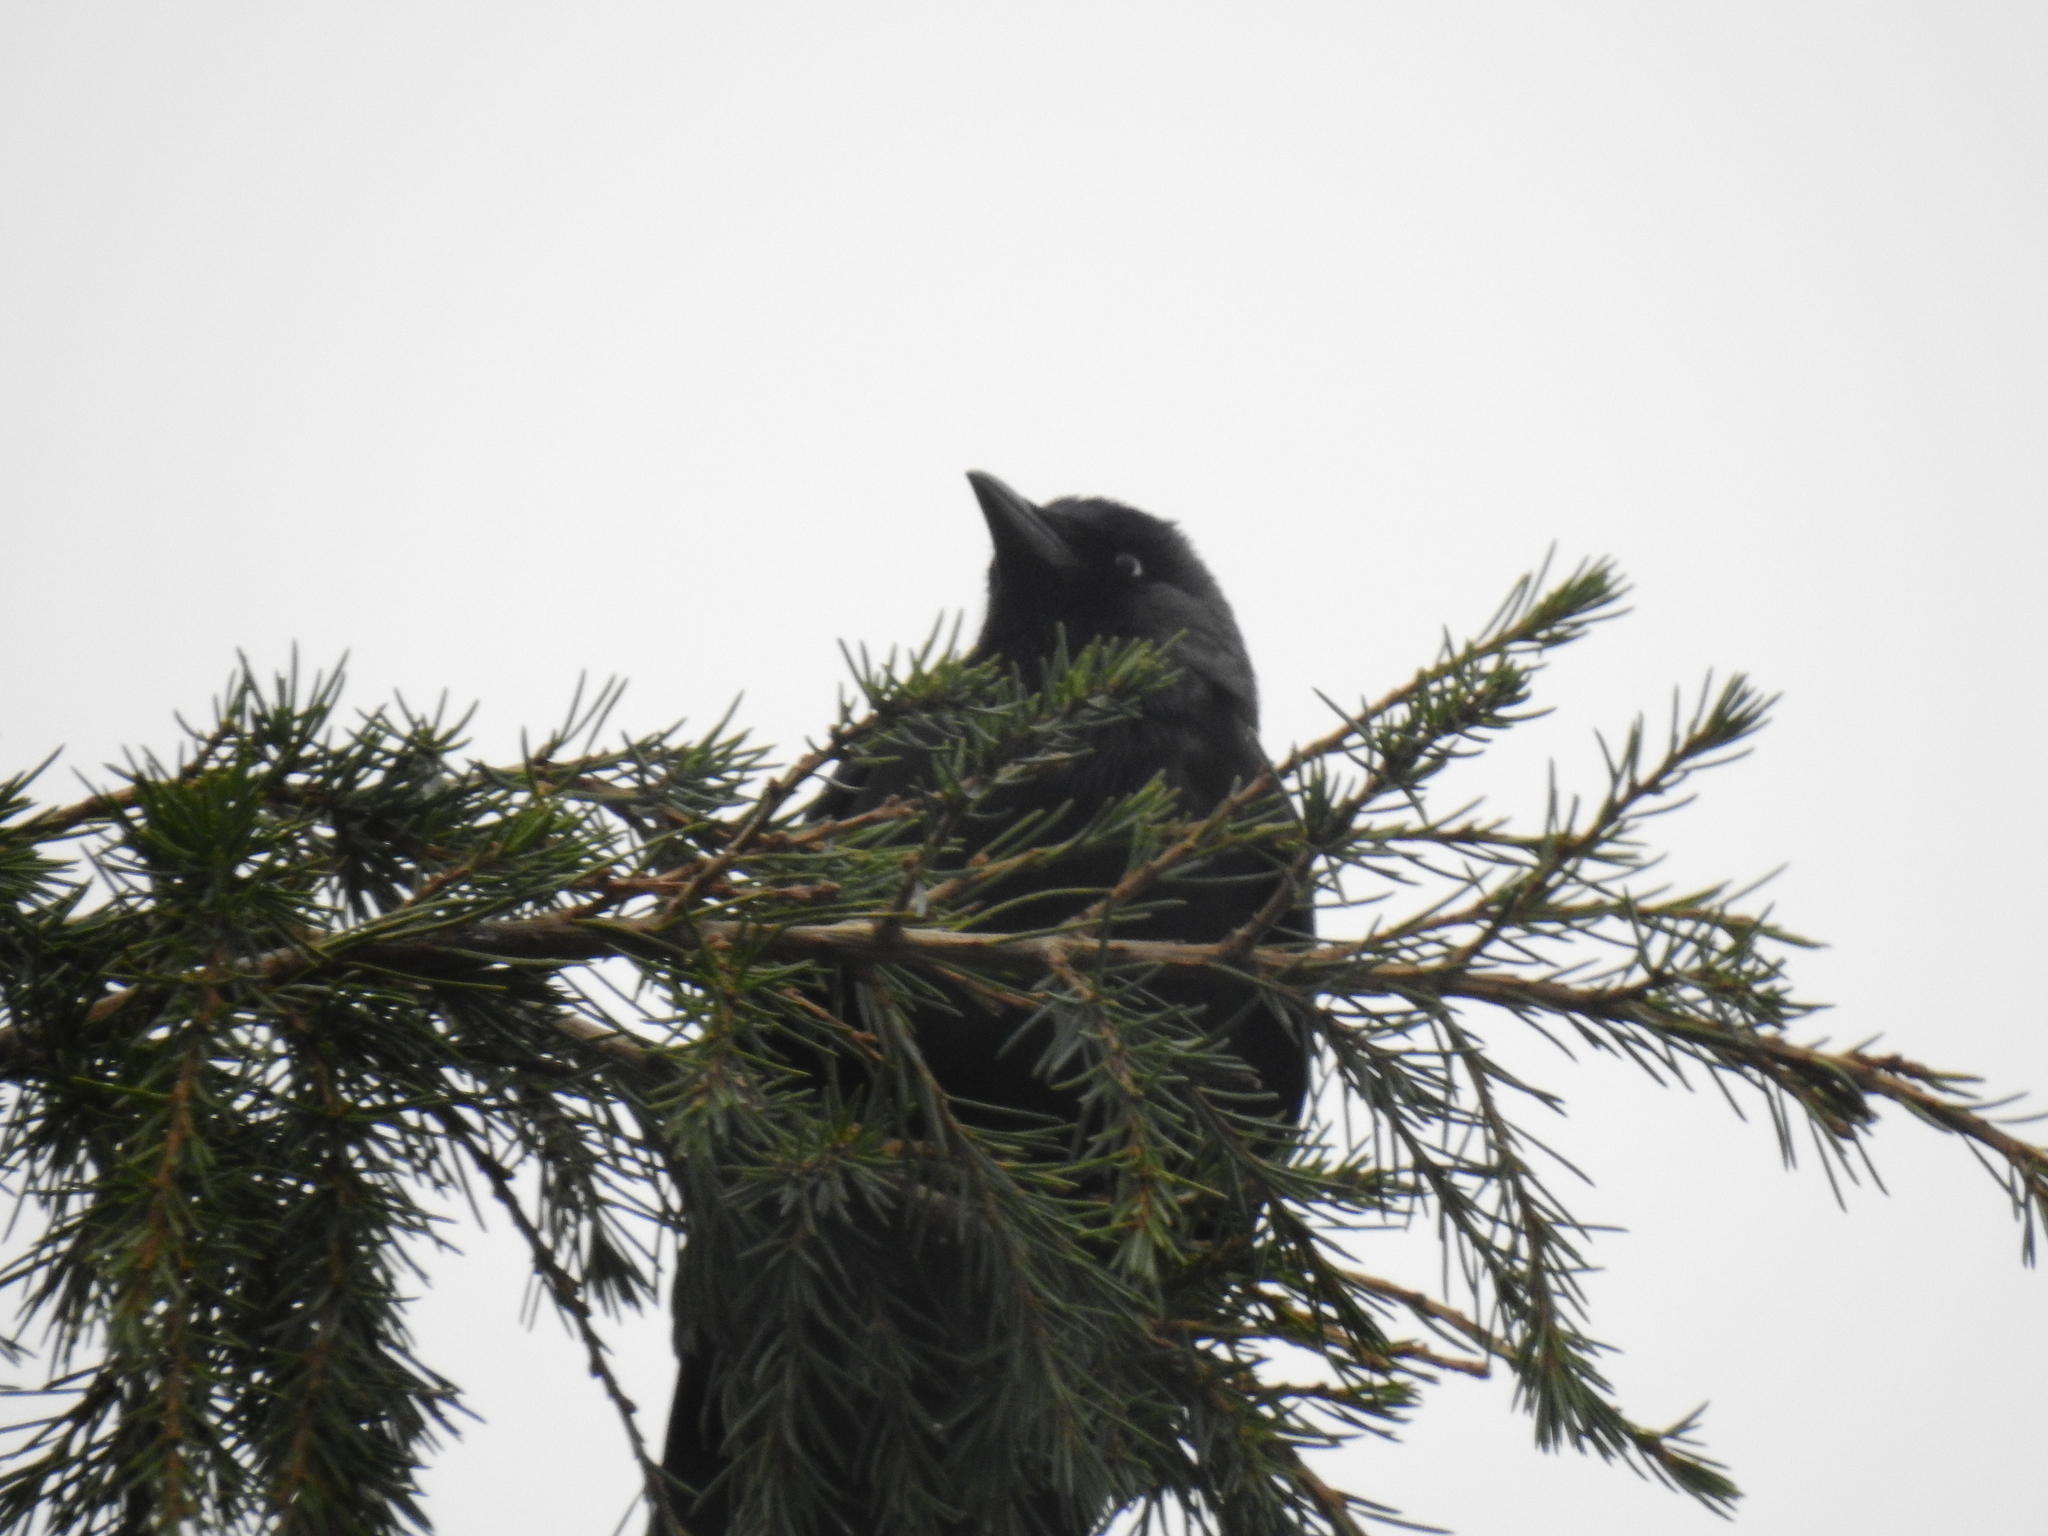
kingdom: Animalia
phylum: Chordata
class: Aves
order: Passeriformes
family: Corvidae
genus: Coloeus
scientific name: Coloeus monedula
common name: Western jackdaw
